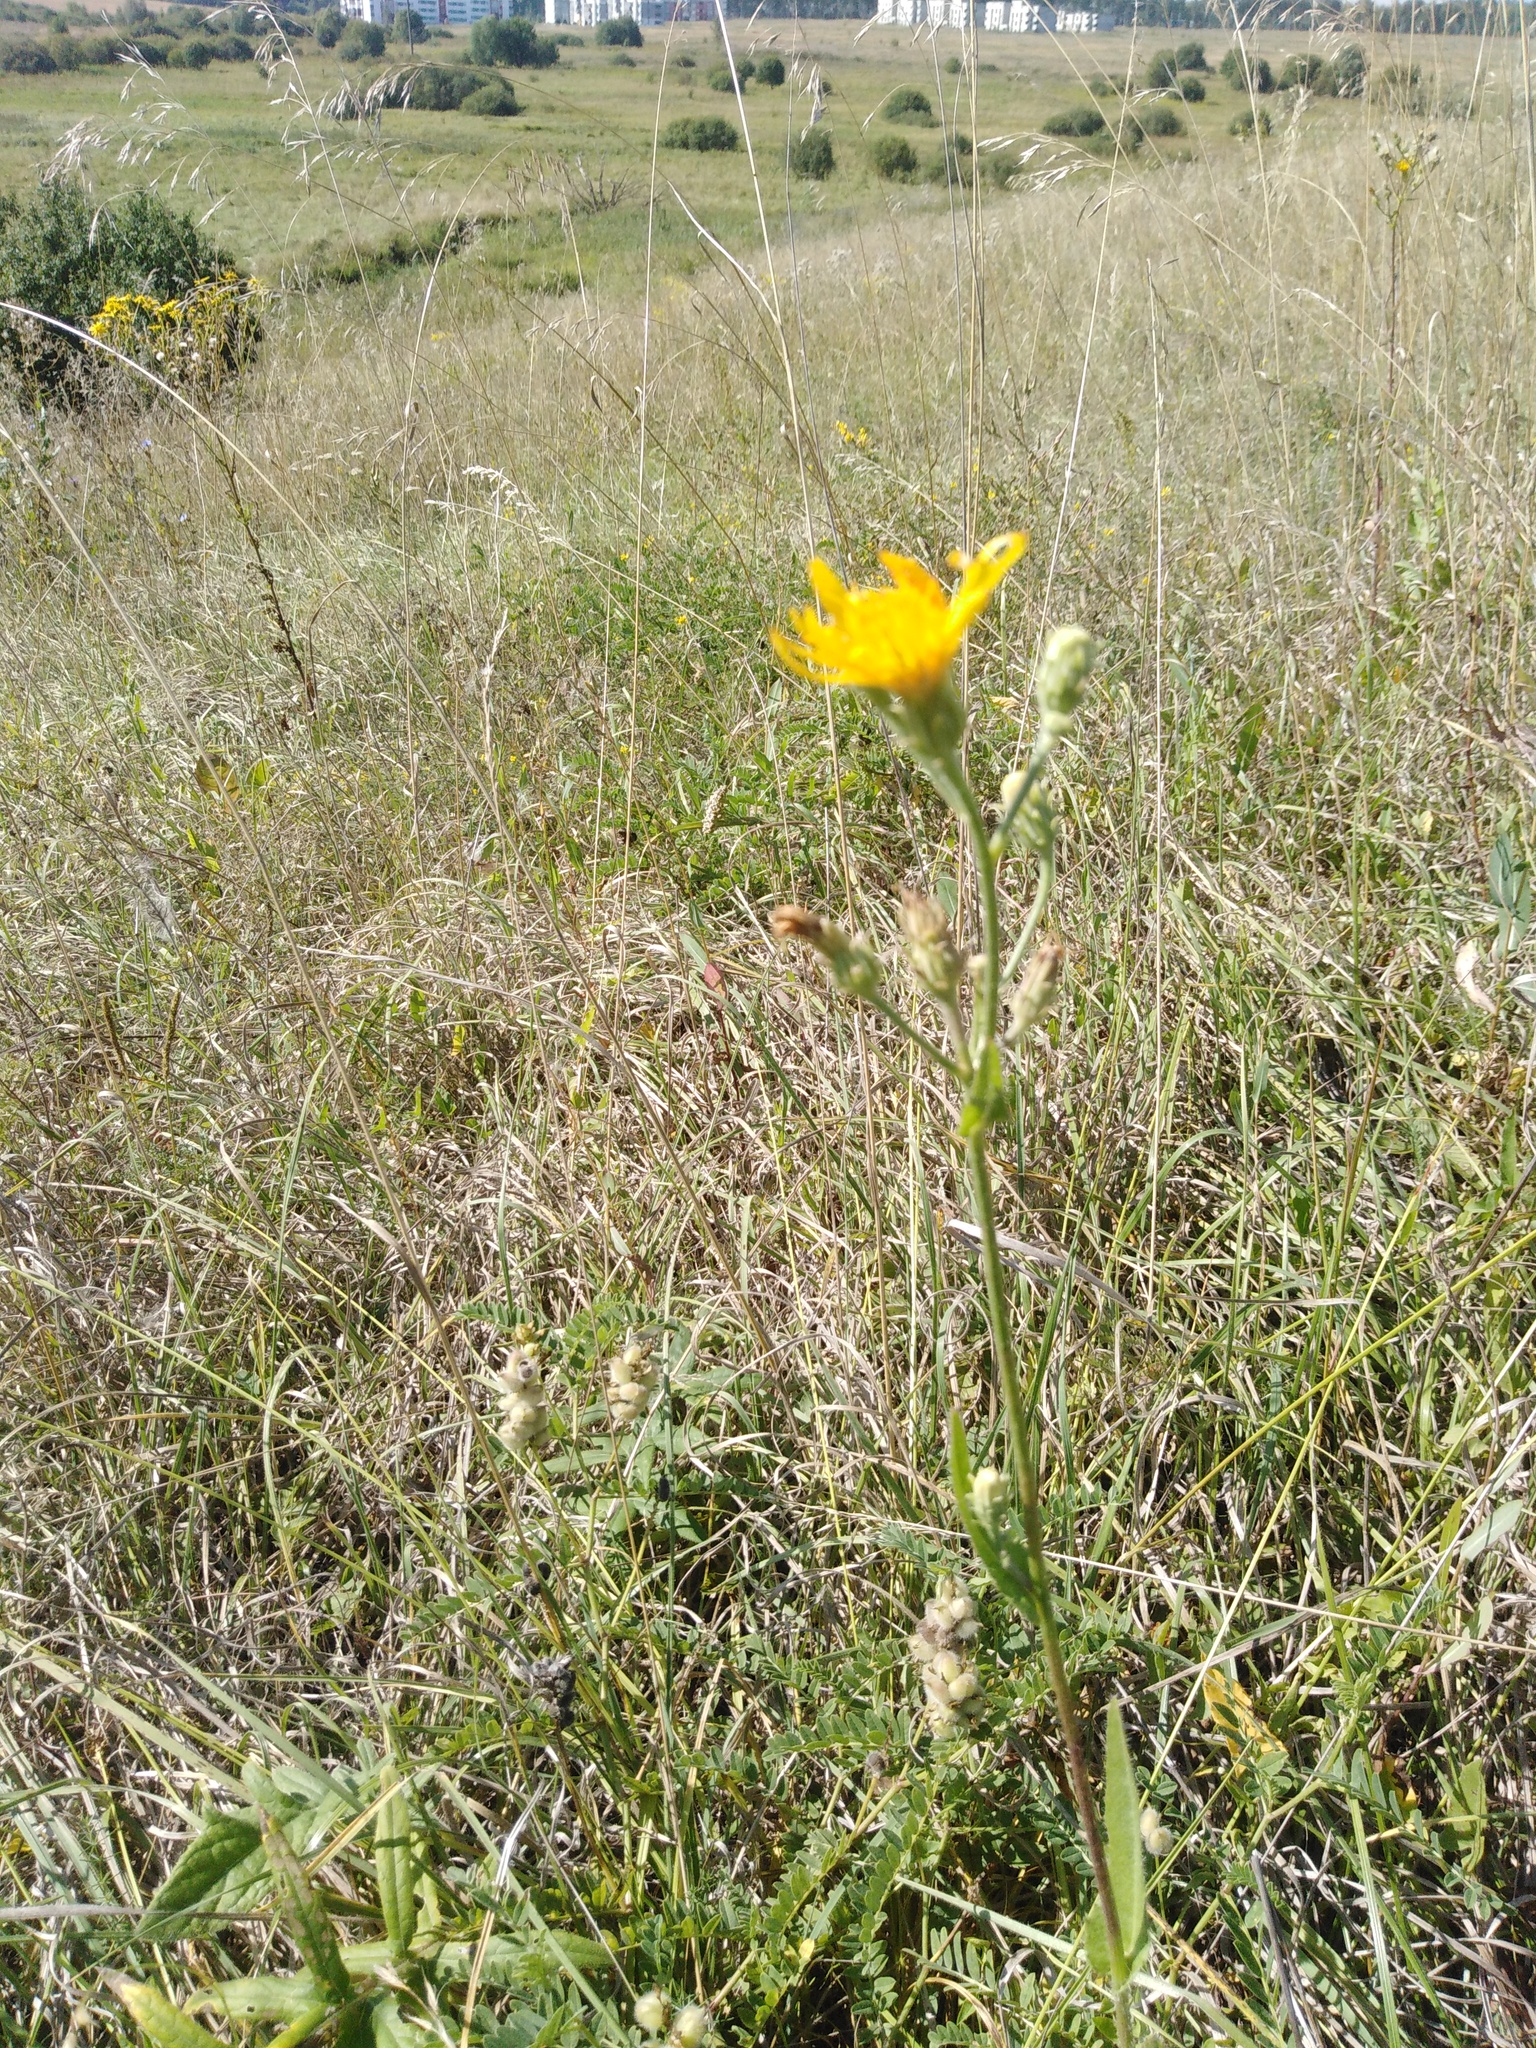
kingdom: Plantae
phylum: Tracheophyta
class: Magnoliopsida
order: Asterales
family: Asteraceae
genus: Picris
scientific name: Picris hieracioides
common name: Hawkweed oxtongue
